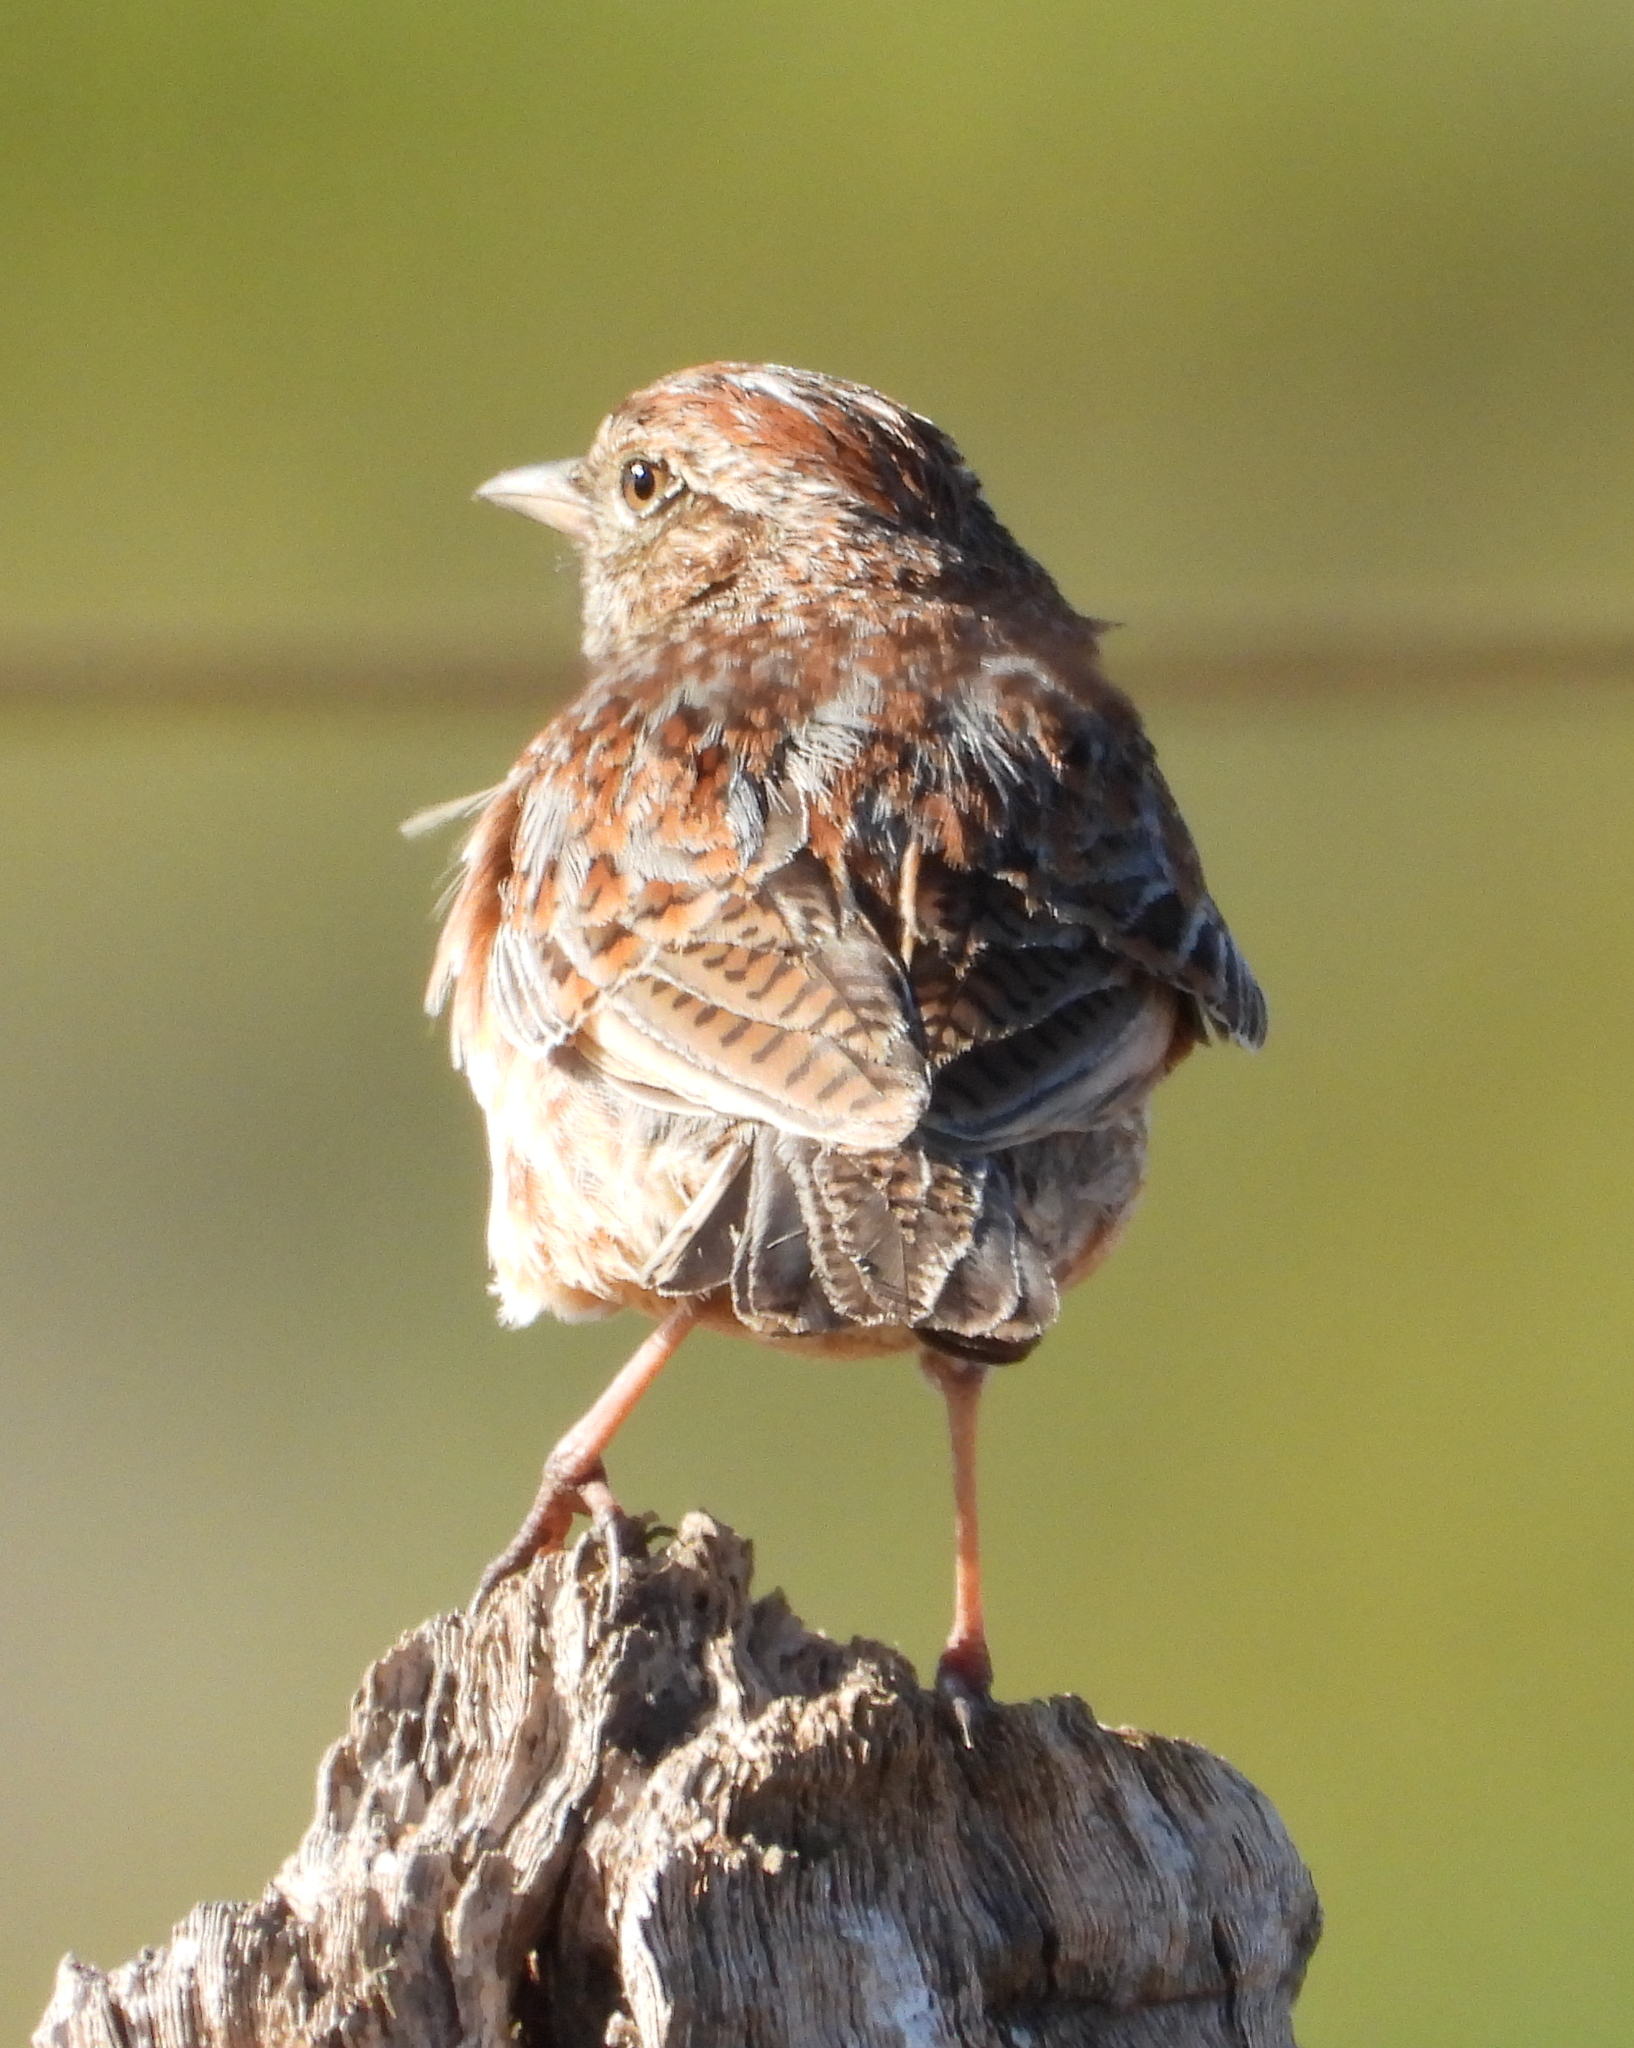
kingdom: Animalia
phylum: Chordata
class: Aves
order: Passeriformes
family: Alaudidae
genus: Mirafra
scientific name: Mirafra apiata
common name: Cape clapper lark
